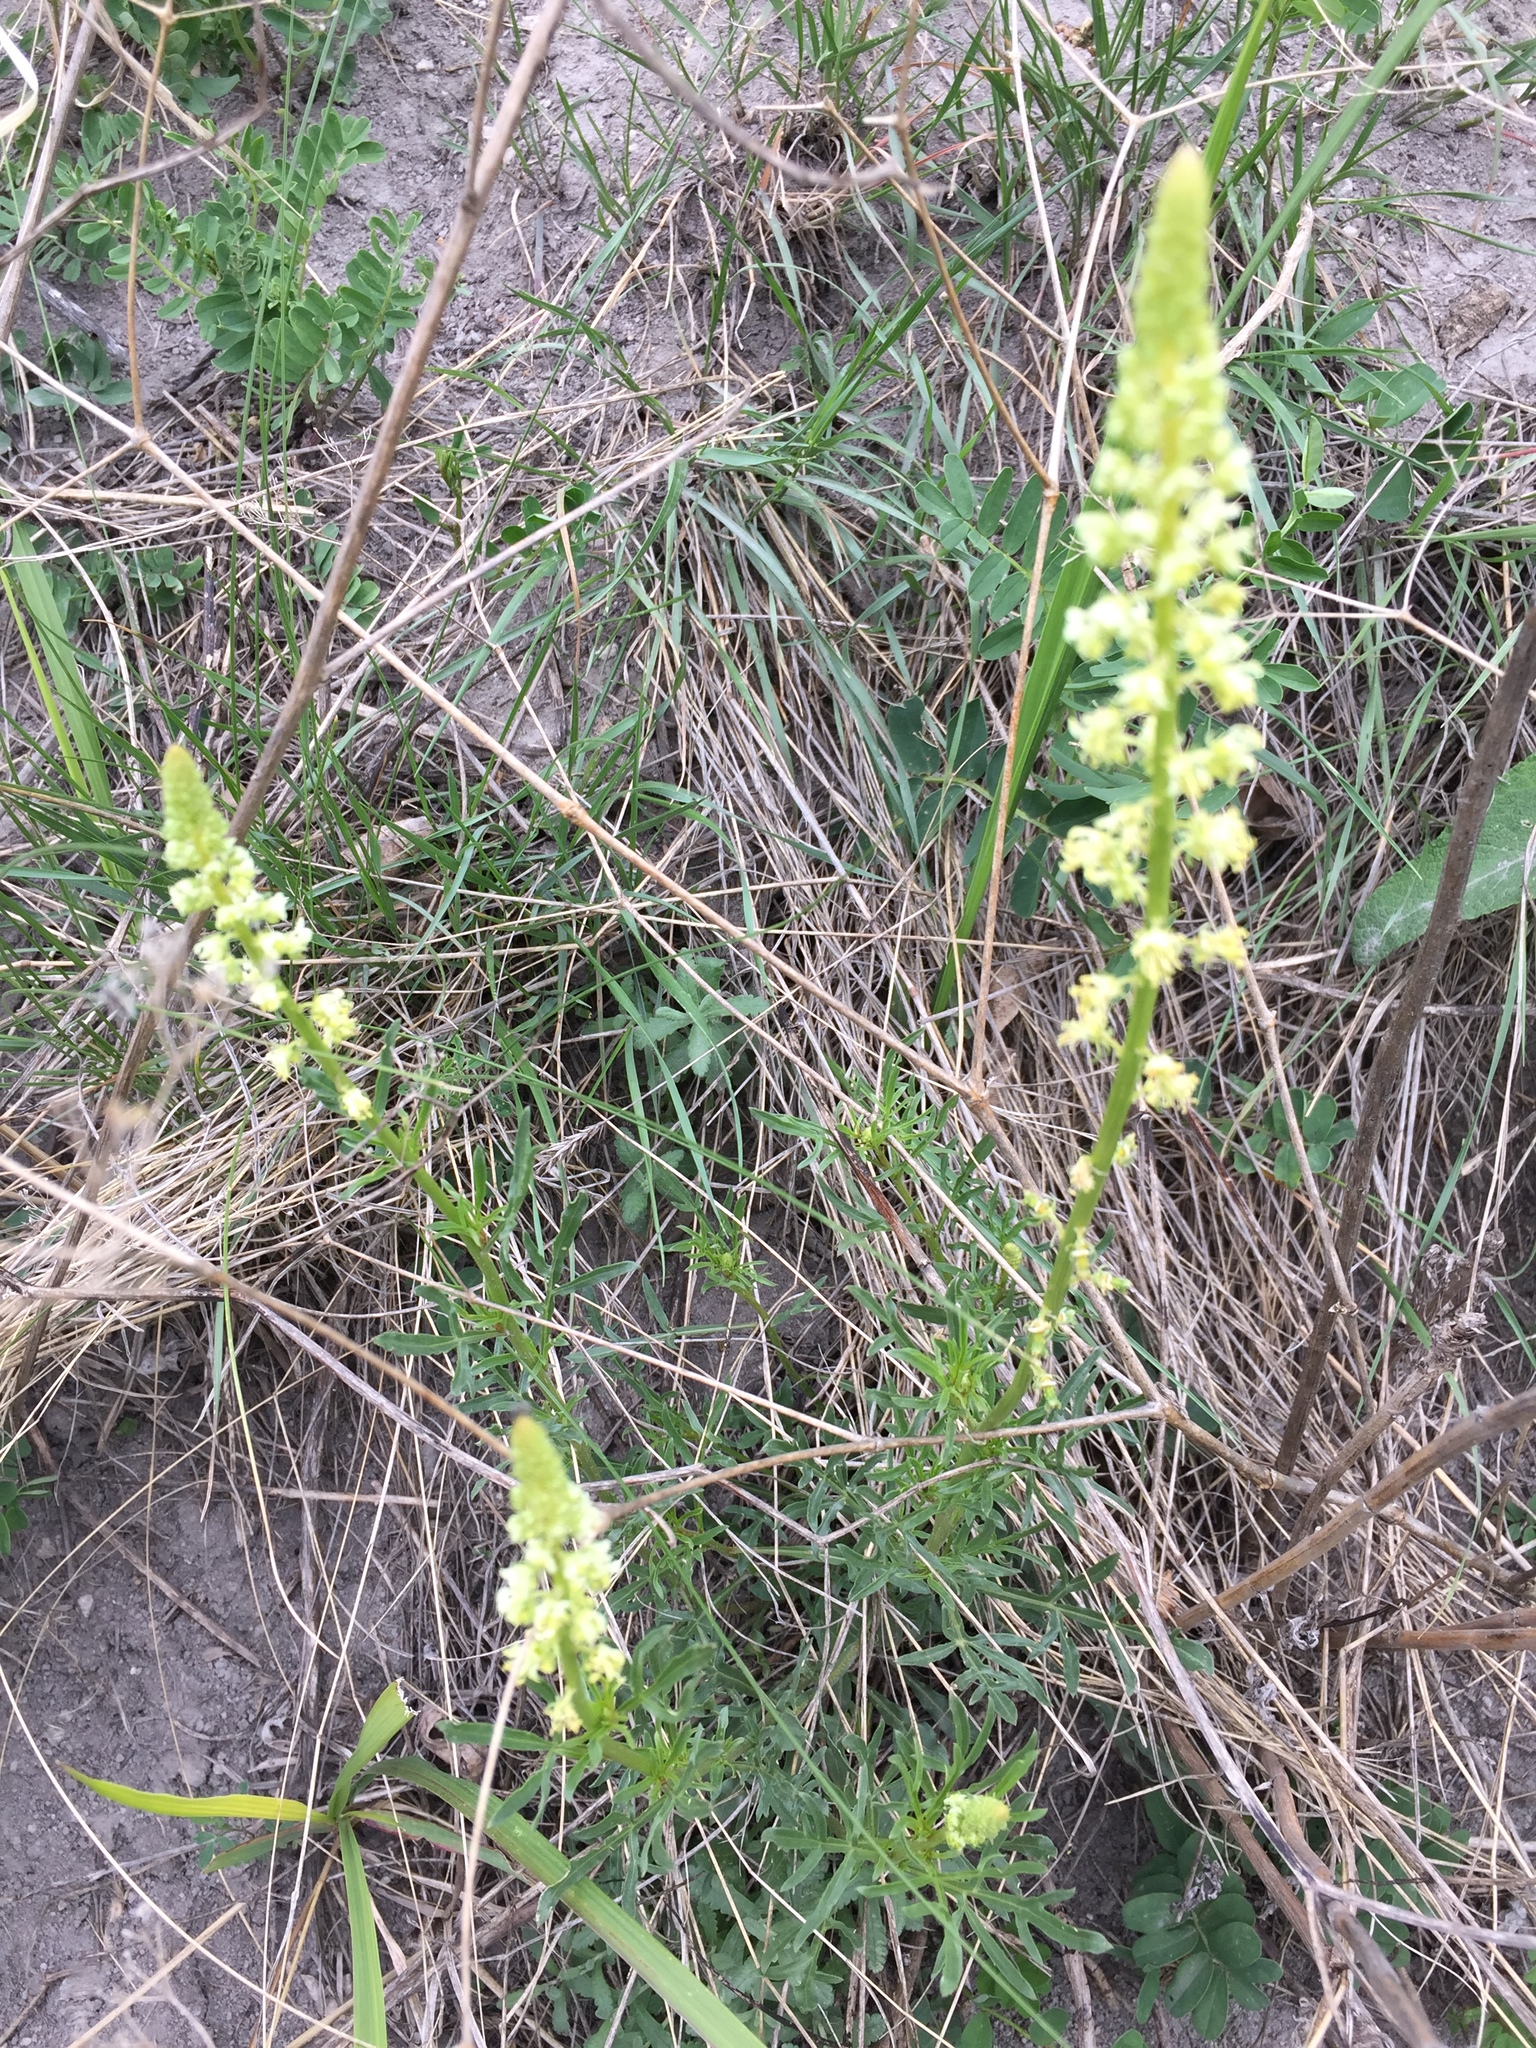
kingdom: Plantae
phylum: Tracheophyta
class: Magnoliopsida
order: Brassicales
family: Resedaceae
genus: Reseda
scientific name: Reseda lutea
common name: Wild mignonette
